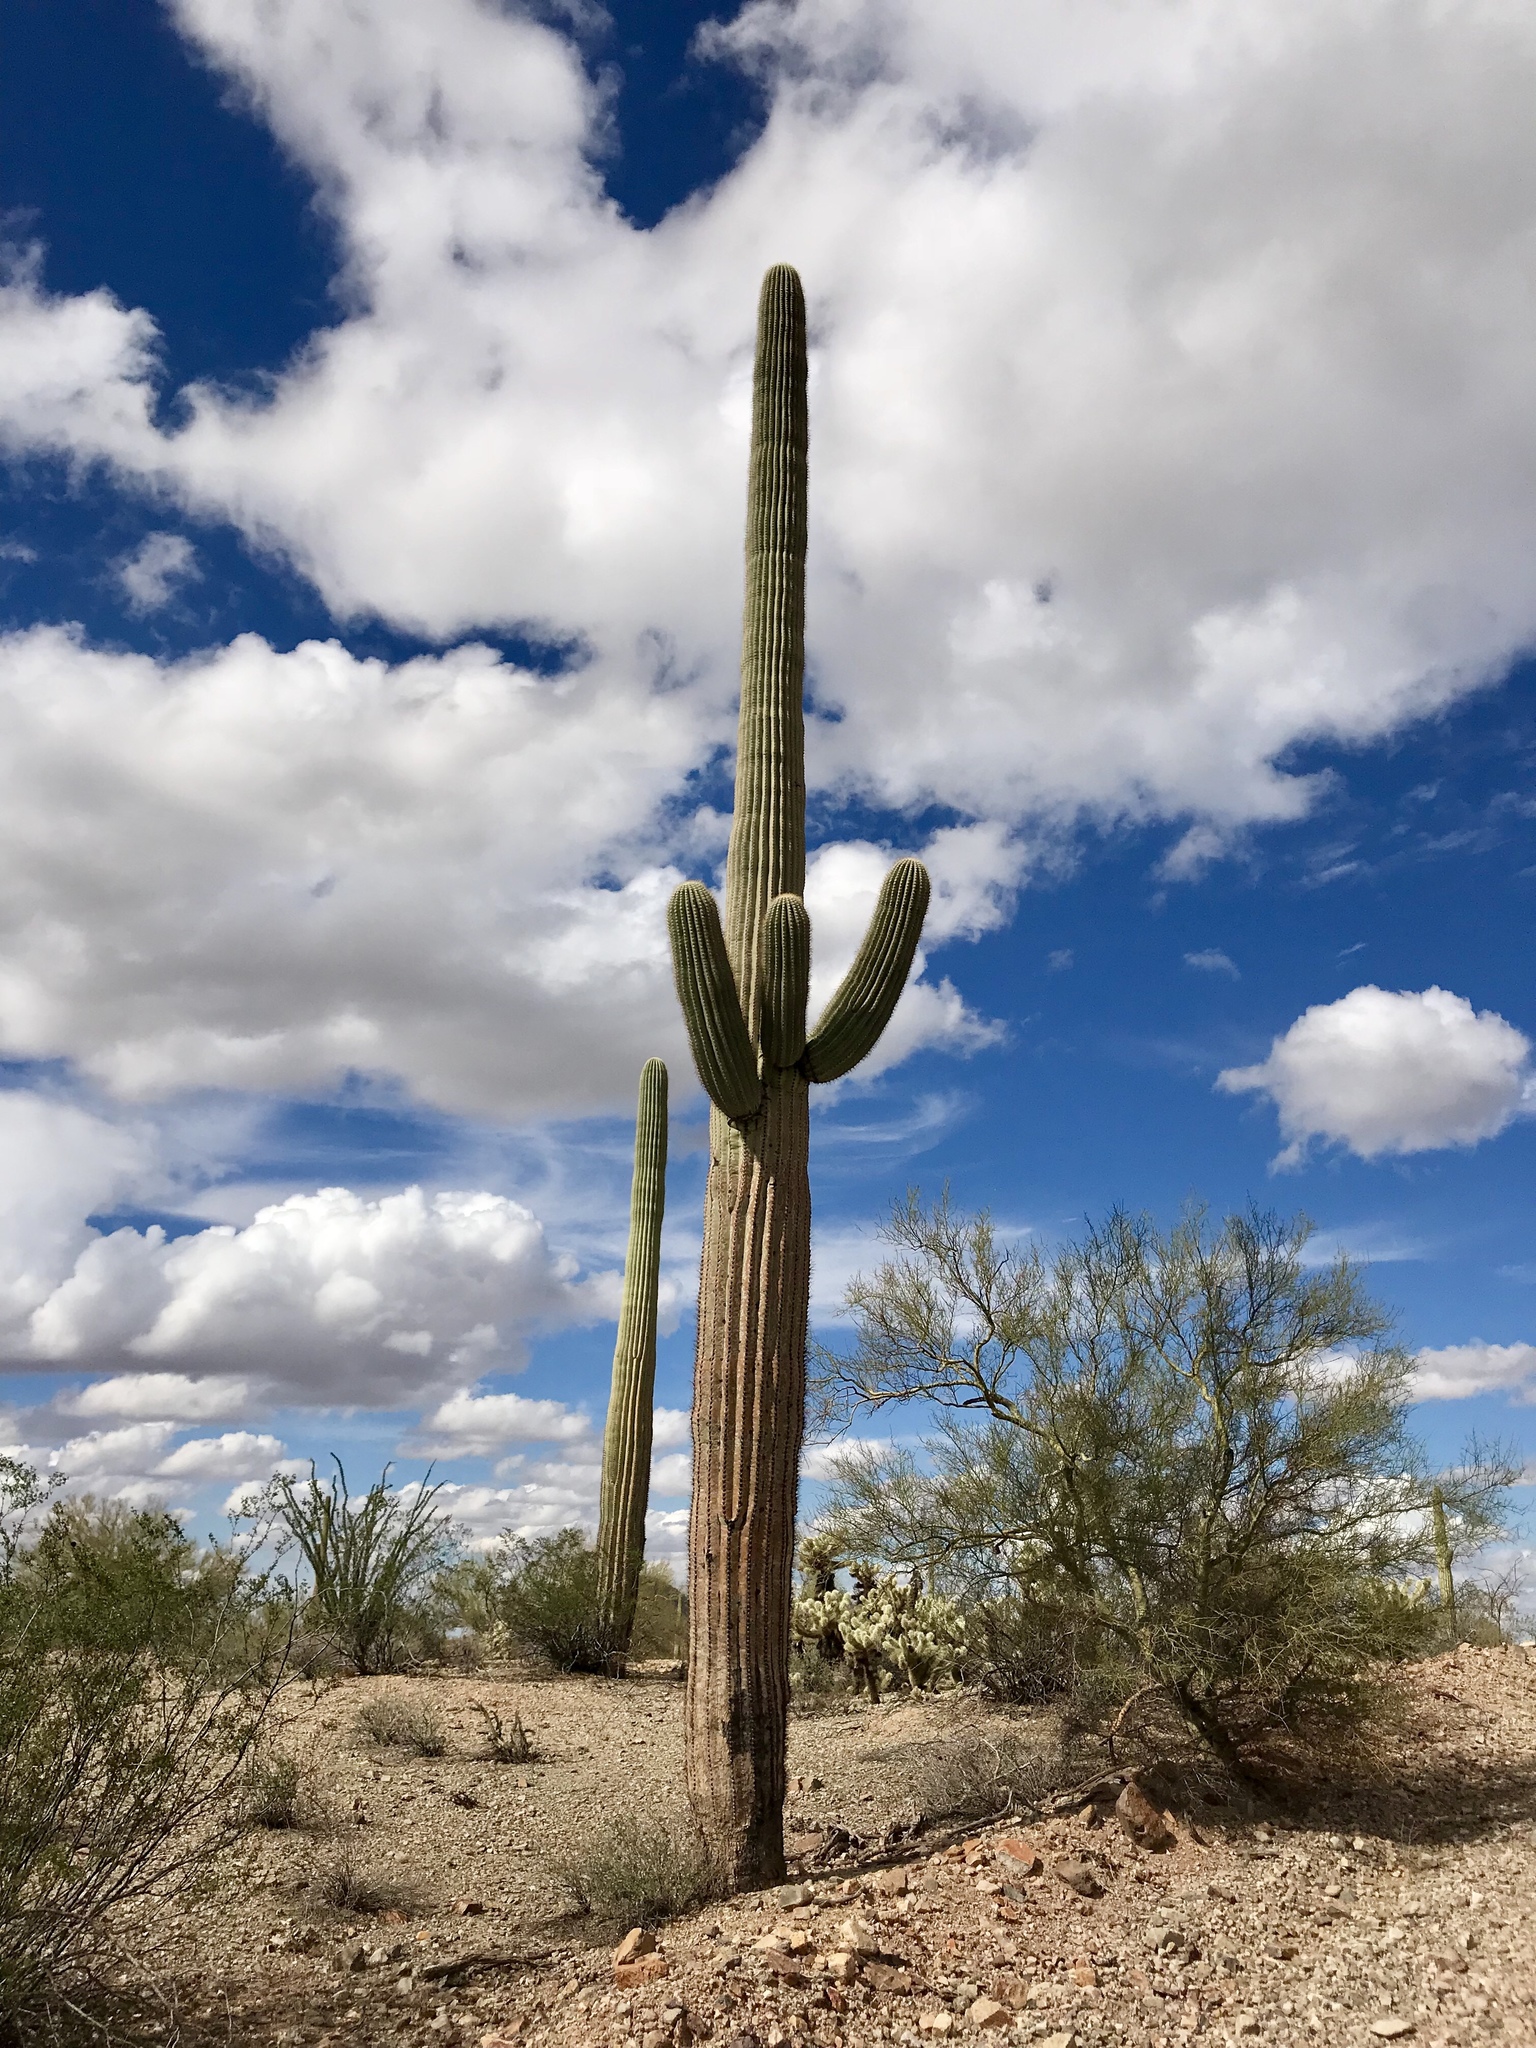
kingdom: Plantae
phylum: Tracheophyta
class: Magnoliopsida
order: Caryophyllales
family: Cactaceae
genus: Carnegiea
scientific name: Carnegiea gigantea
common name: Saguaro
